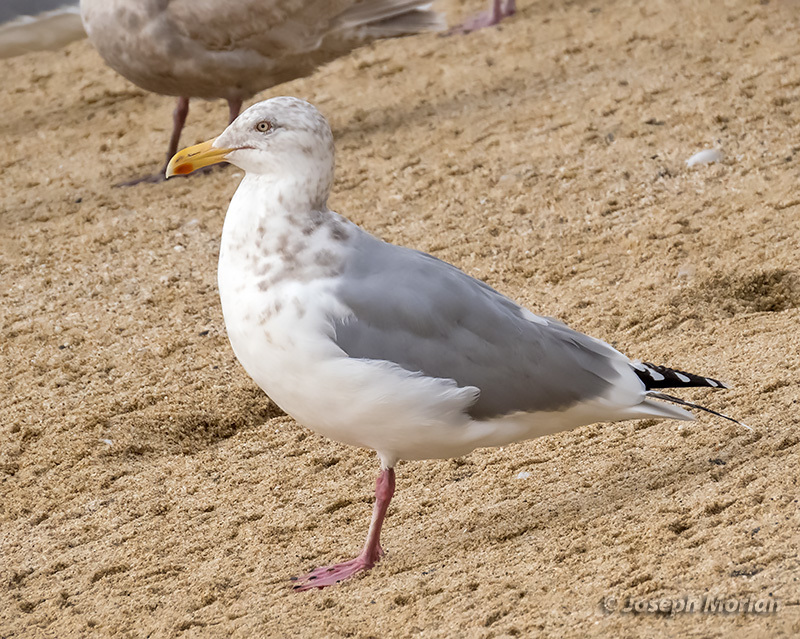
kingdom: Animalia
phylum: Chordata
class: Aves
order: Charadriiformes
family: Laridae
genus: Larus
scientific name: Larus argentatus
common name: Herring gull
